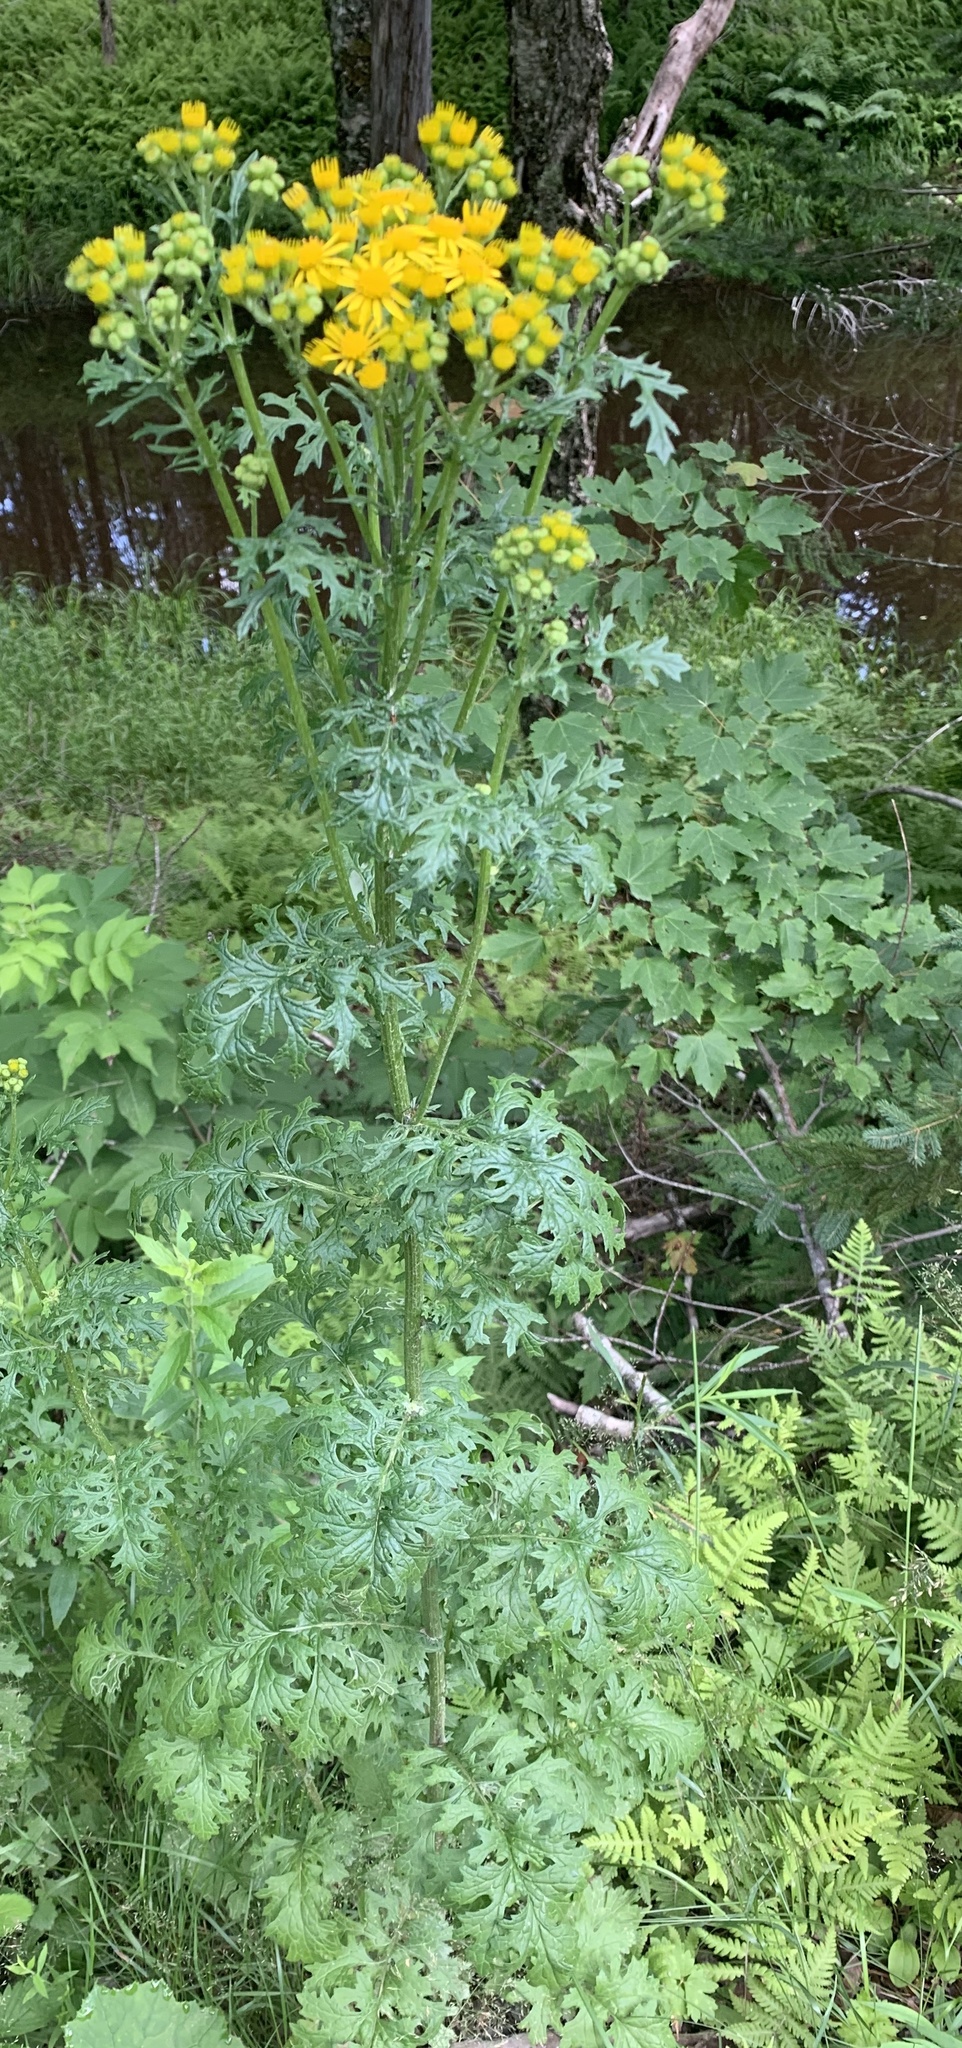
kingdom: Plantae
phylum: Tracheophyta
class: Magnoliopsida
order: Asterales
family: Asteraceae
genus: Jacobaea
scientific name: Jacobaea vulgaris
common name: Stinking willie
